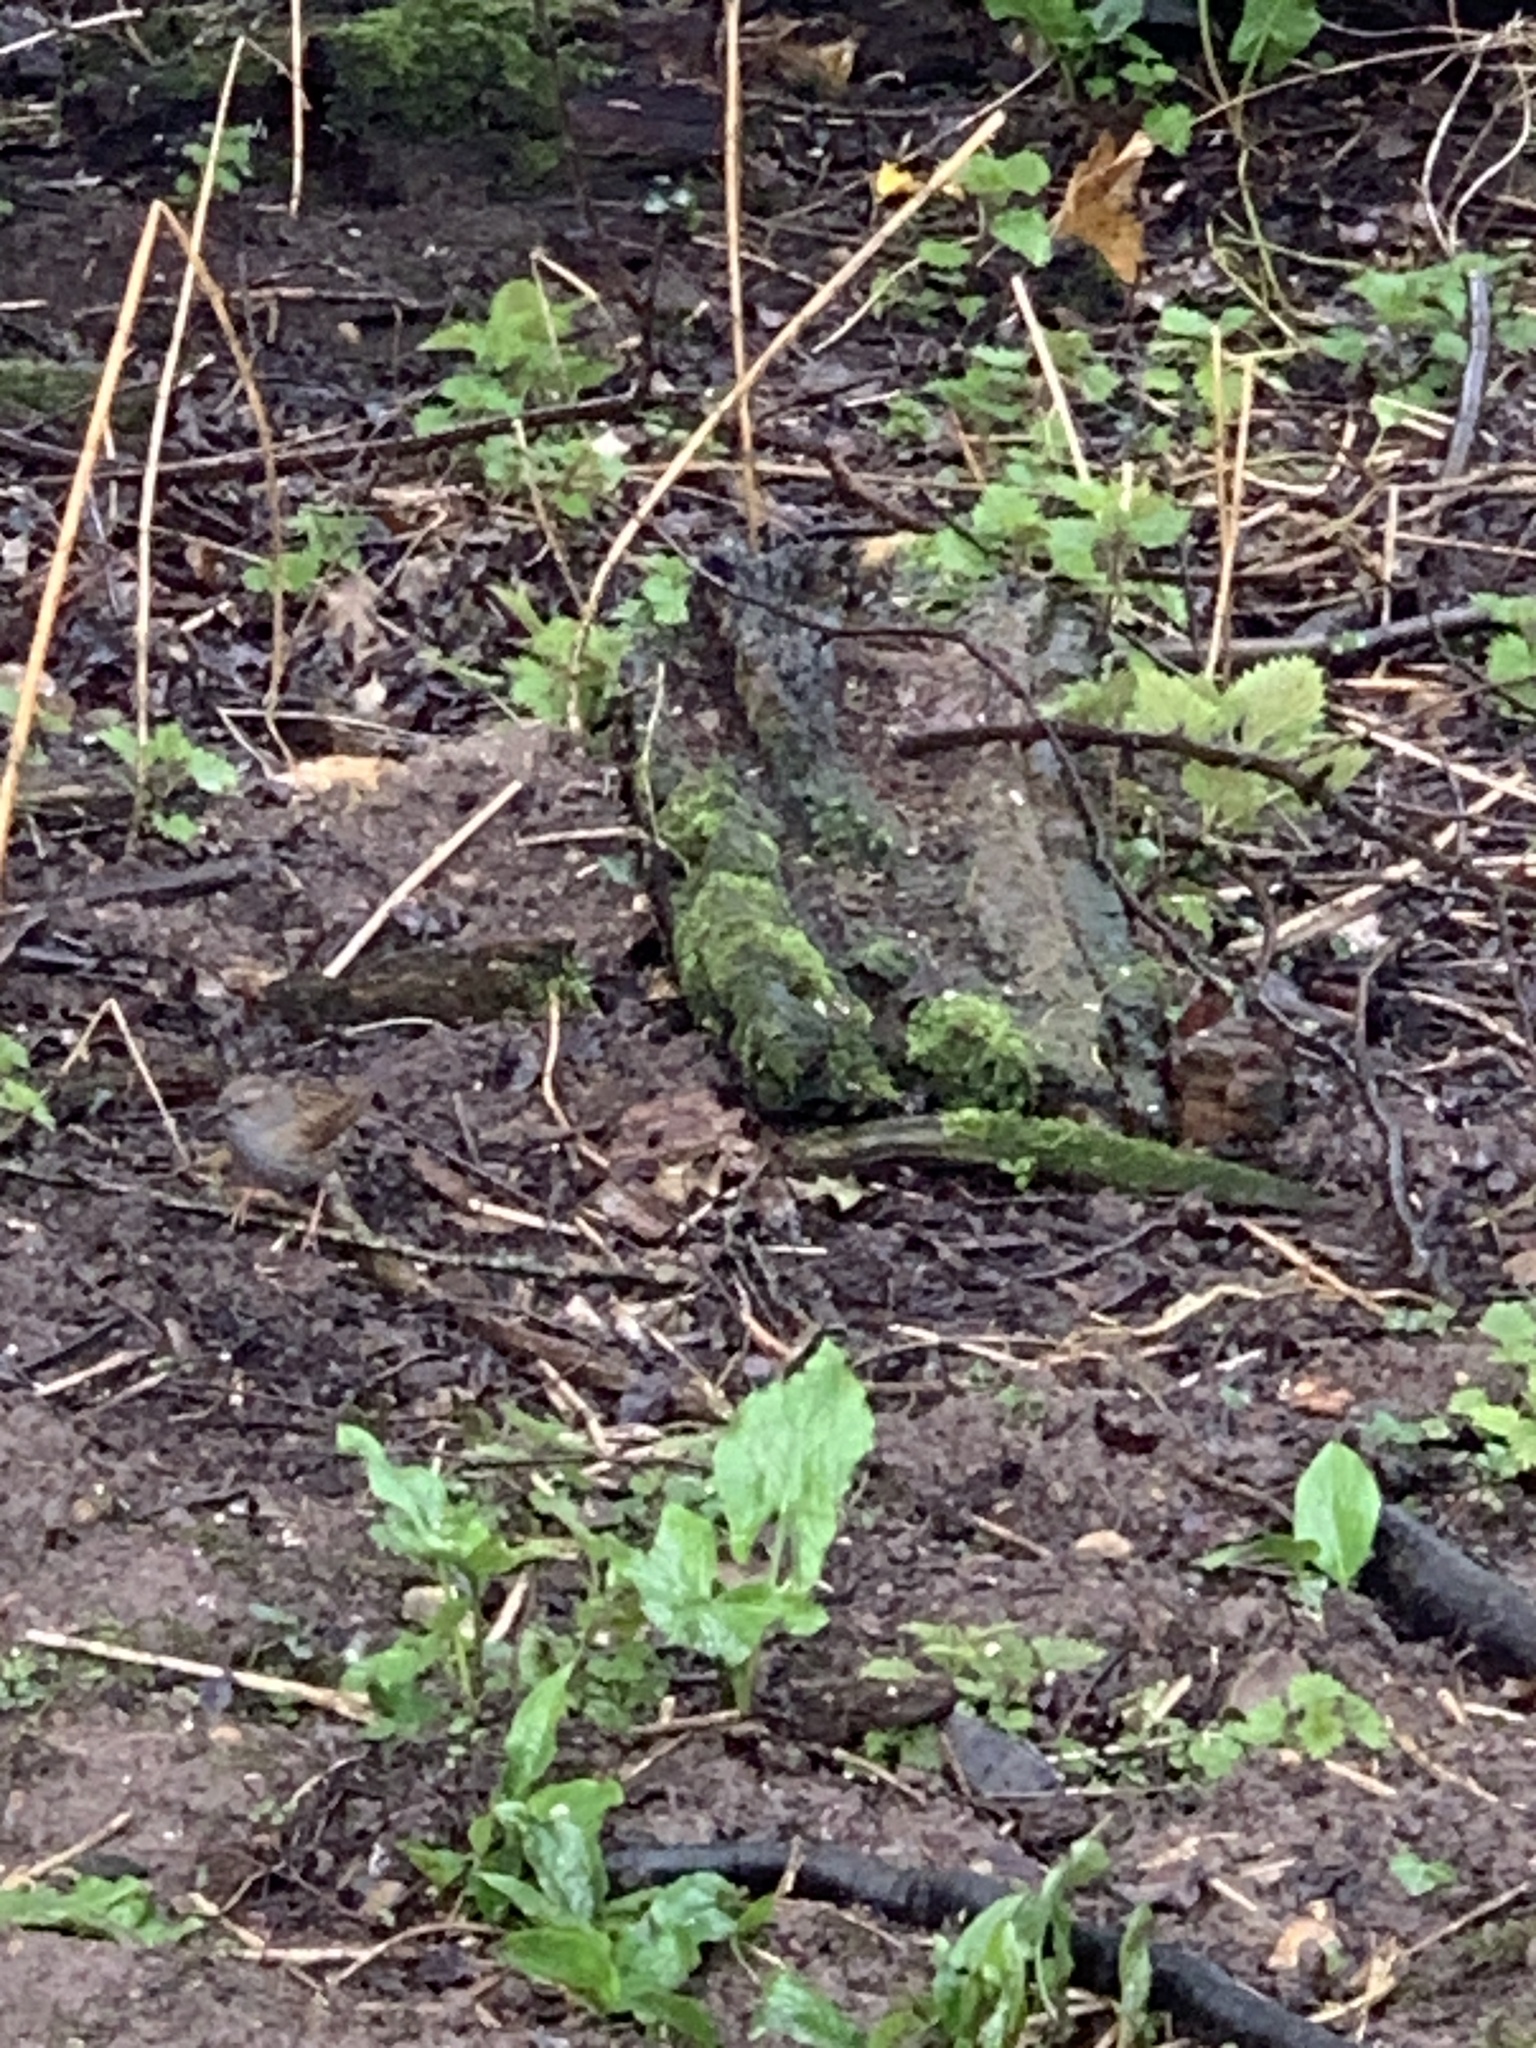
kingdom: Animalia
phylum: Chordata
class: Aves
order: Passeriformes
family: Prunellidae
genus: Prunella
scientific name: Prunella modularis
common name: Dunnock
